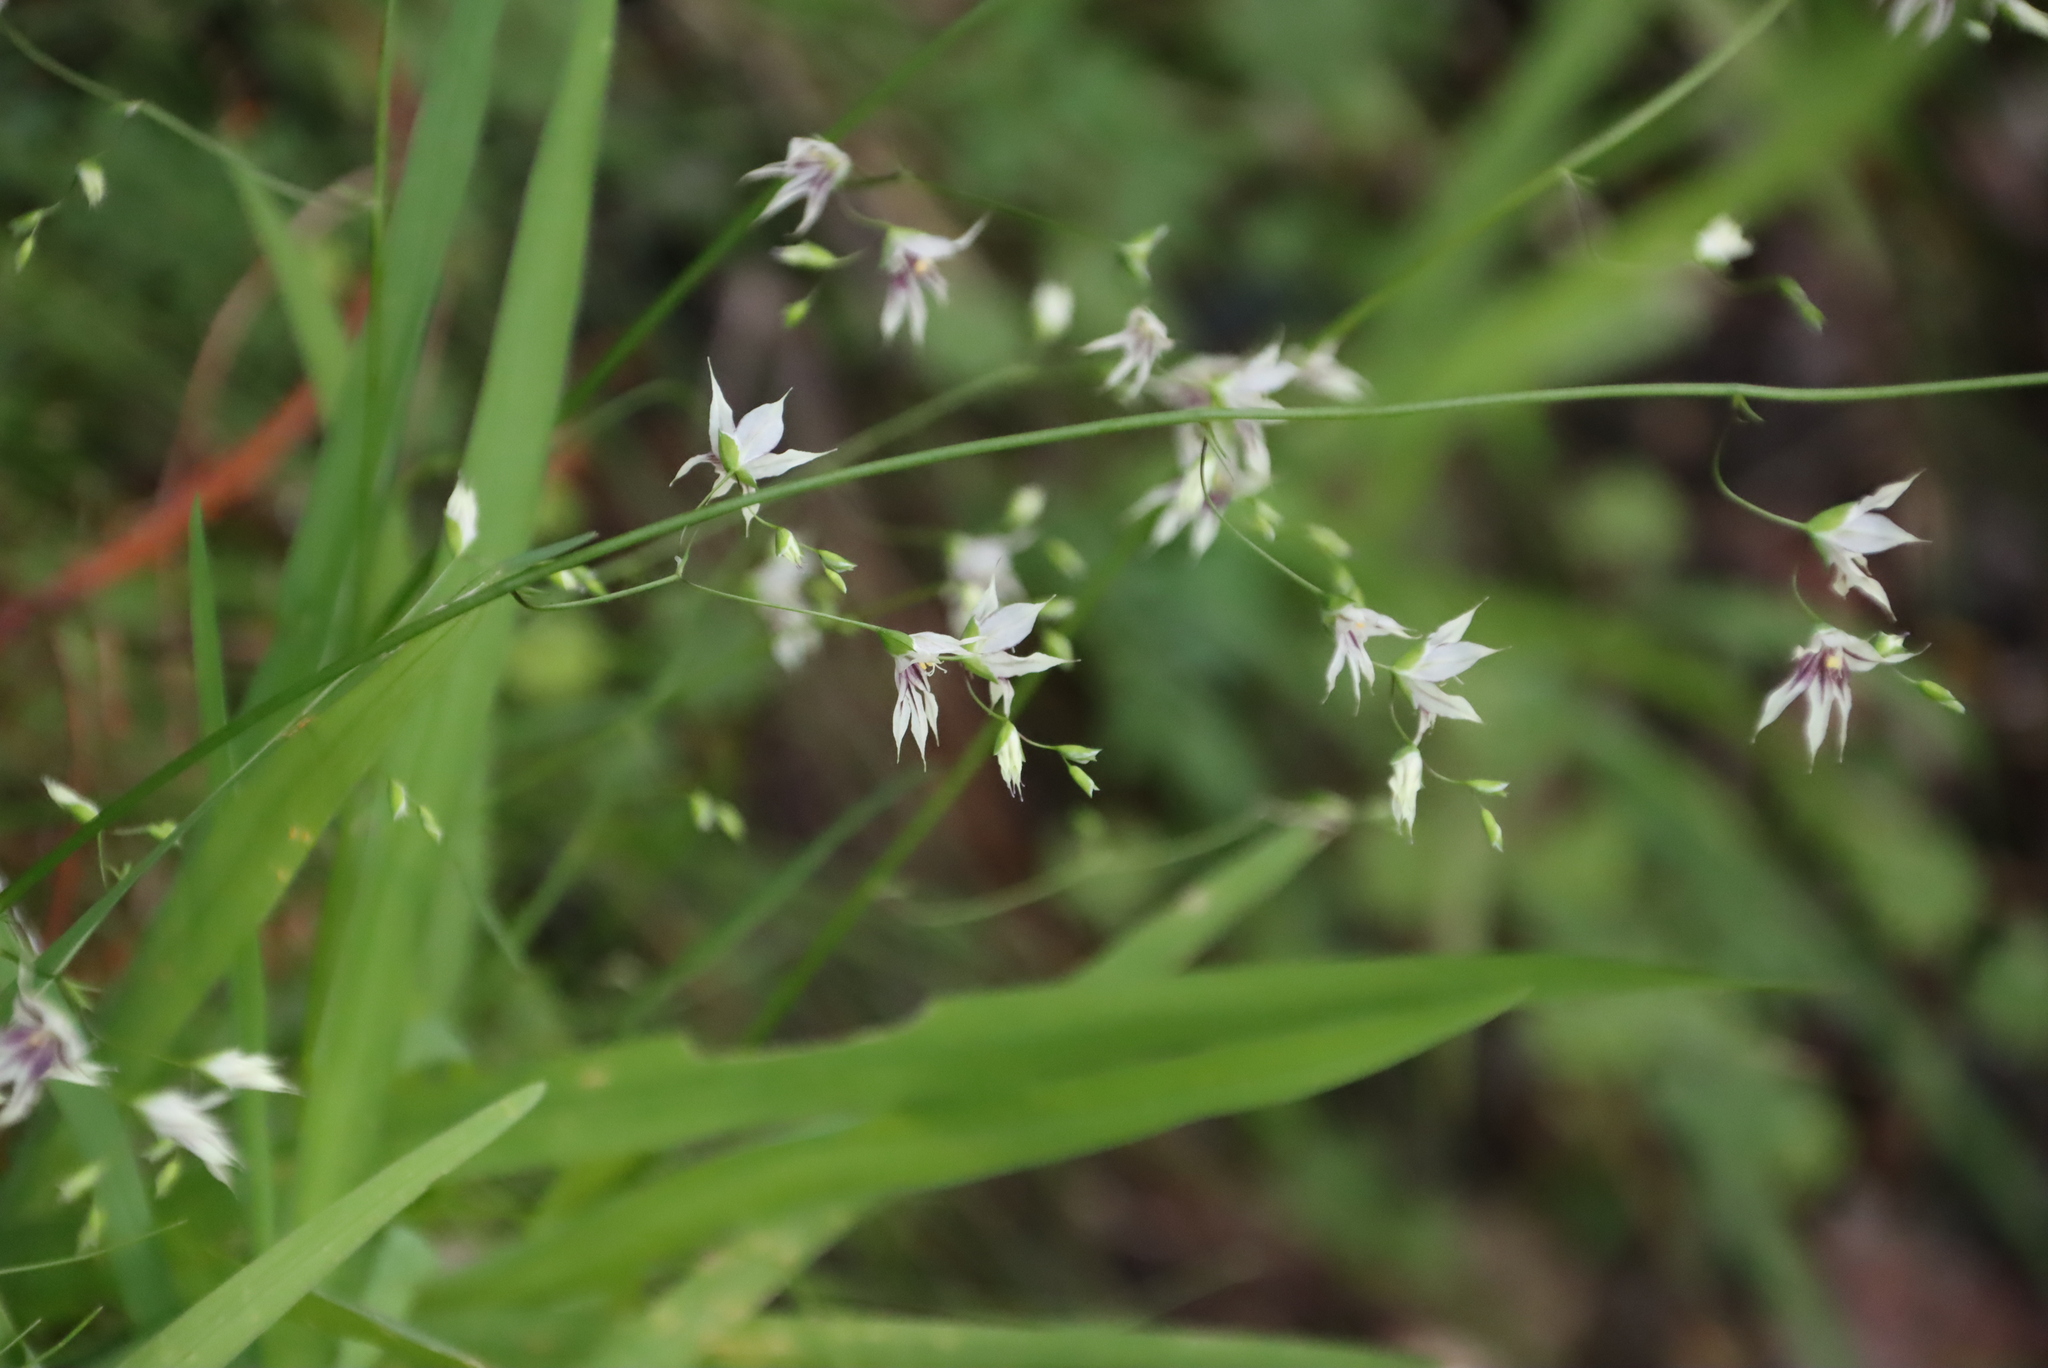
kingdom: Plantae
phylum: Tracheophyta
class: Liliopsida
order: Asparagales
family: Iridaceae
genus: Melasphaerula
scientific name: Melasphaerula graminea
